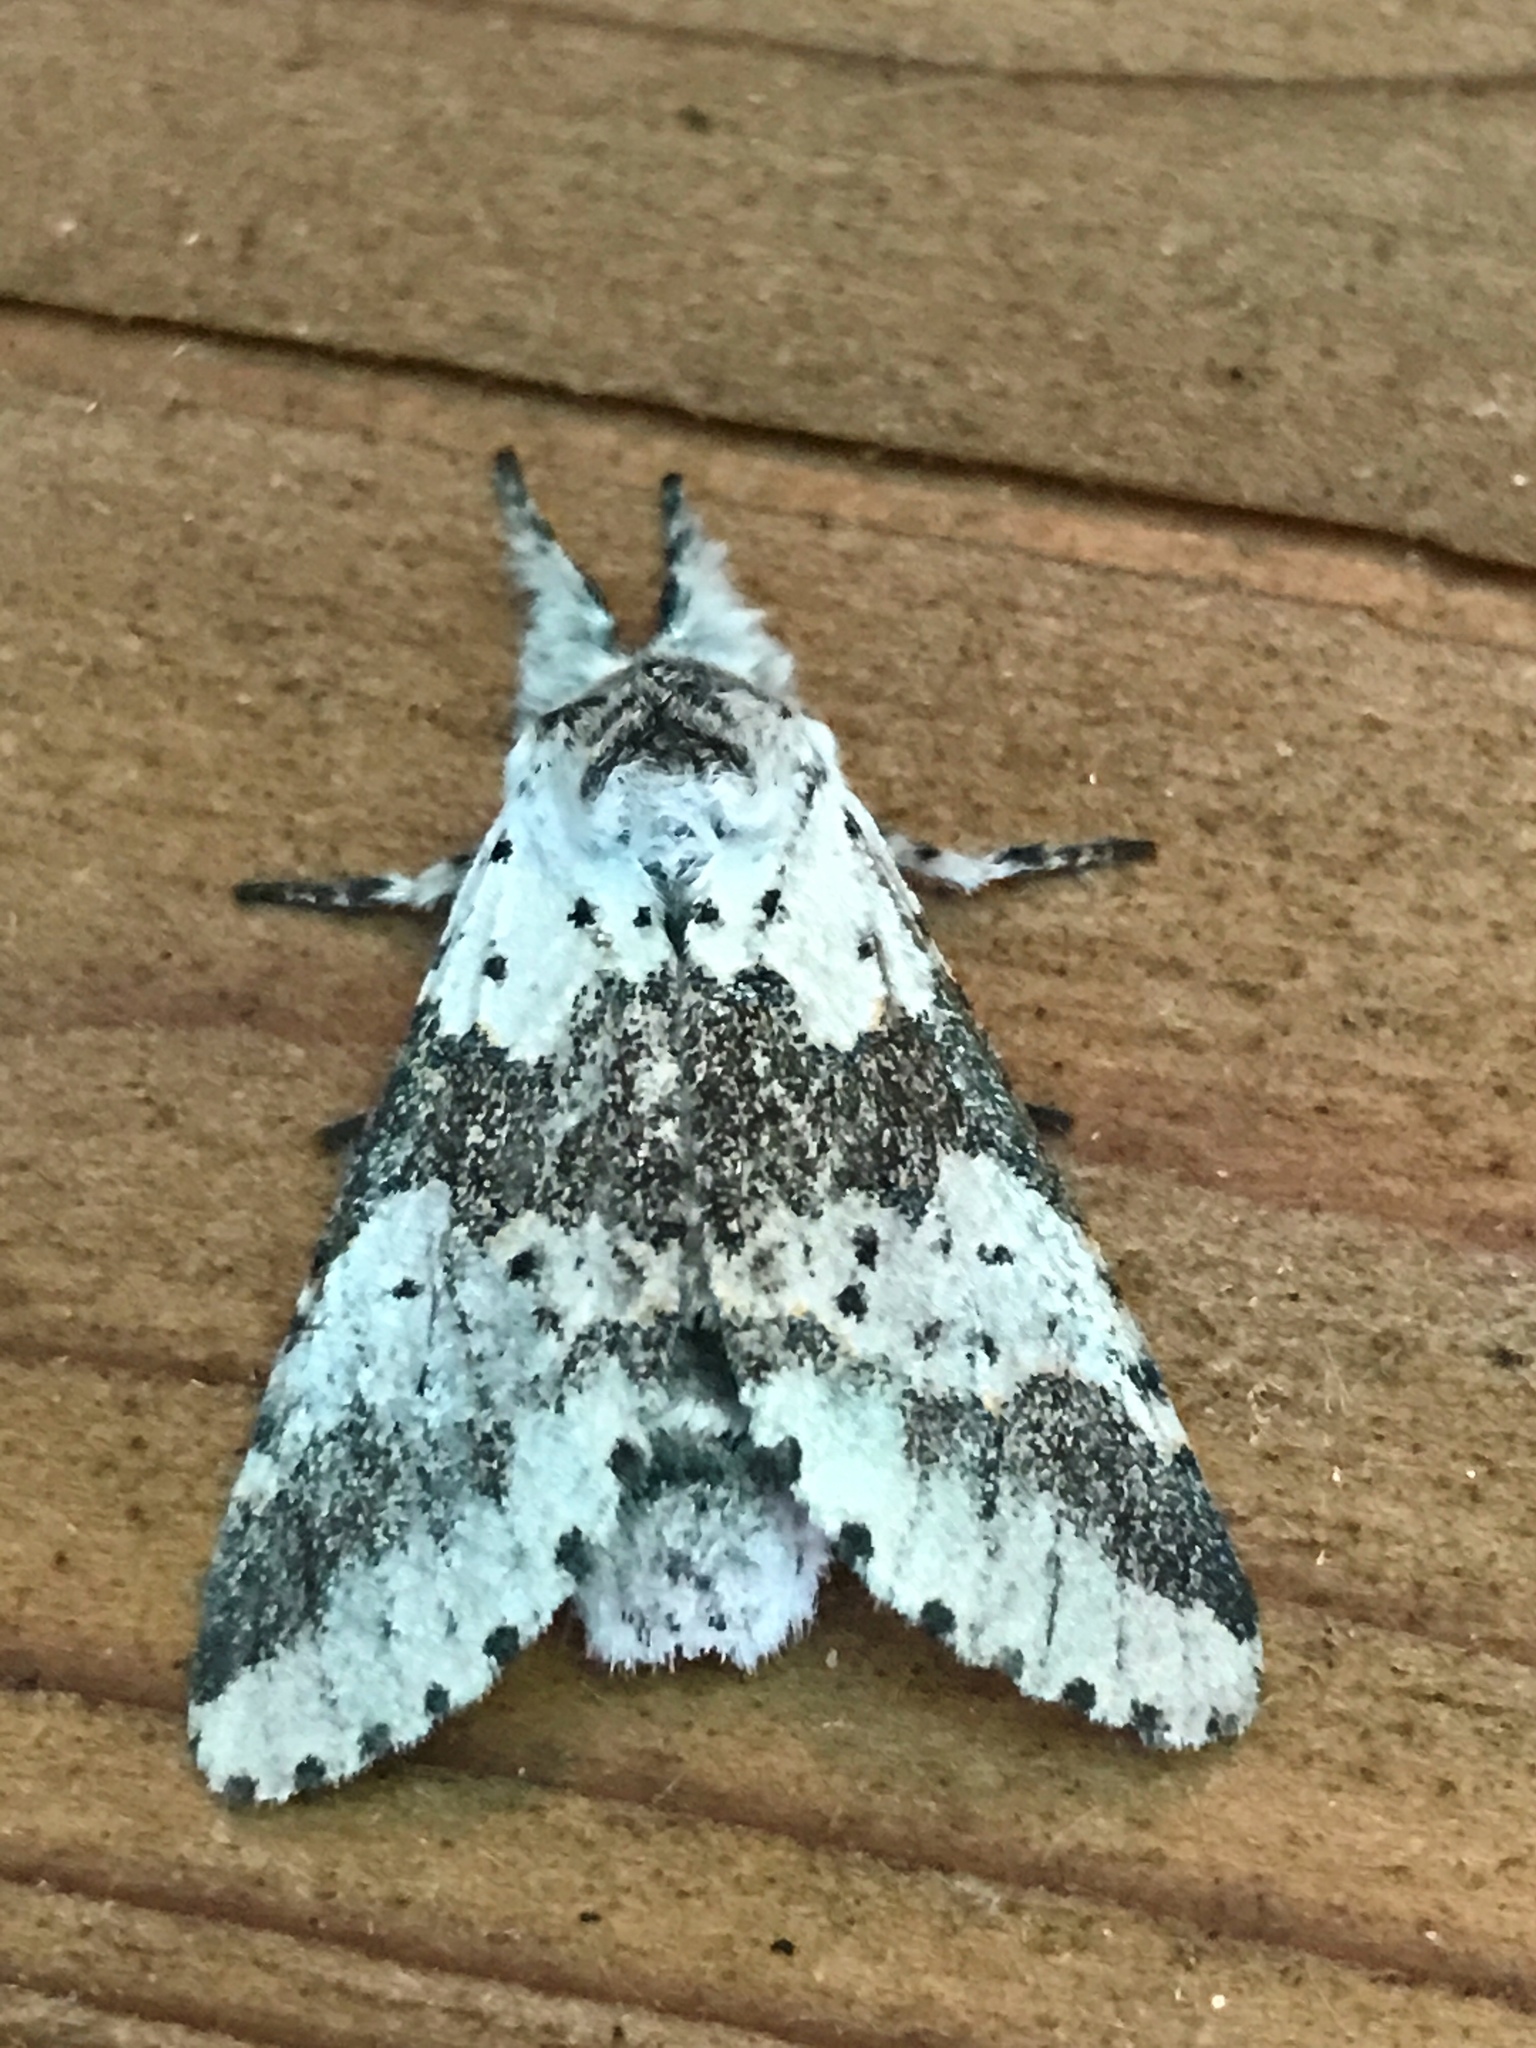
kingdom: Animalia
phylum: Arthropoda
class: Insecta
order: Lepidoptera
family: Notodontidae
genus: Furcula
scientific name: Furcula borealis
